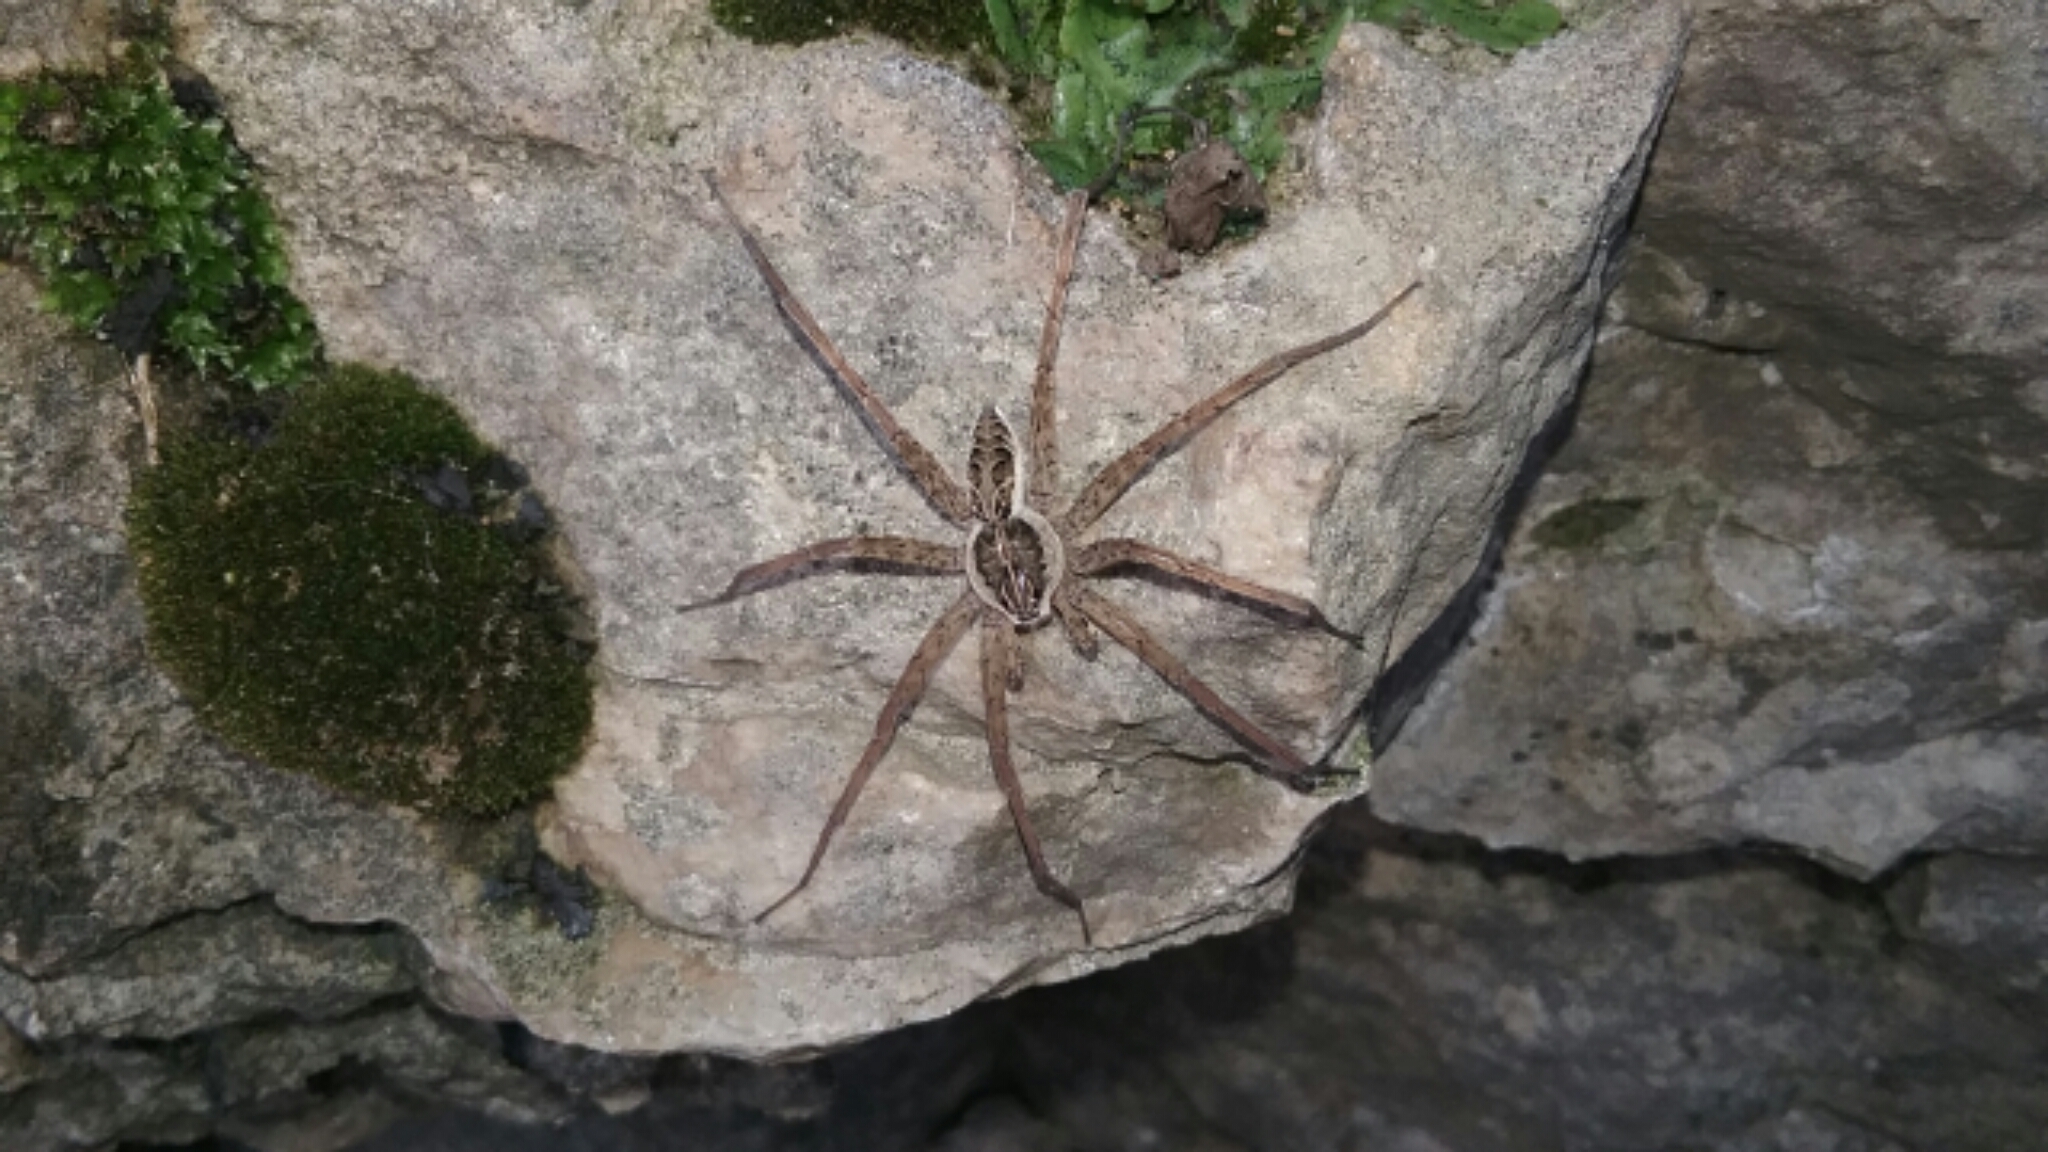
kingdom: Animalia
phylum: Arthropoda
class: Arachnida
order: Araneae
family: Pisauridae
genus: Dolomedes
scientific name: Dolomedes scriptus
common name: Striped fishing spider
